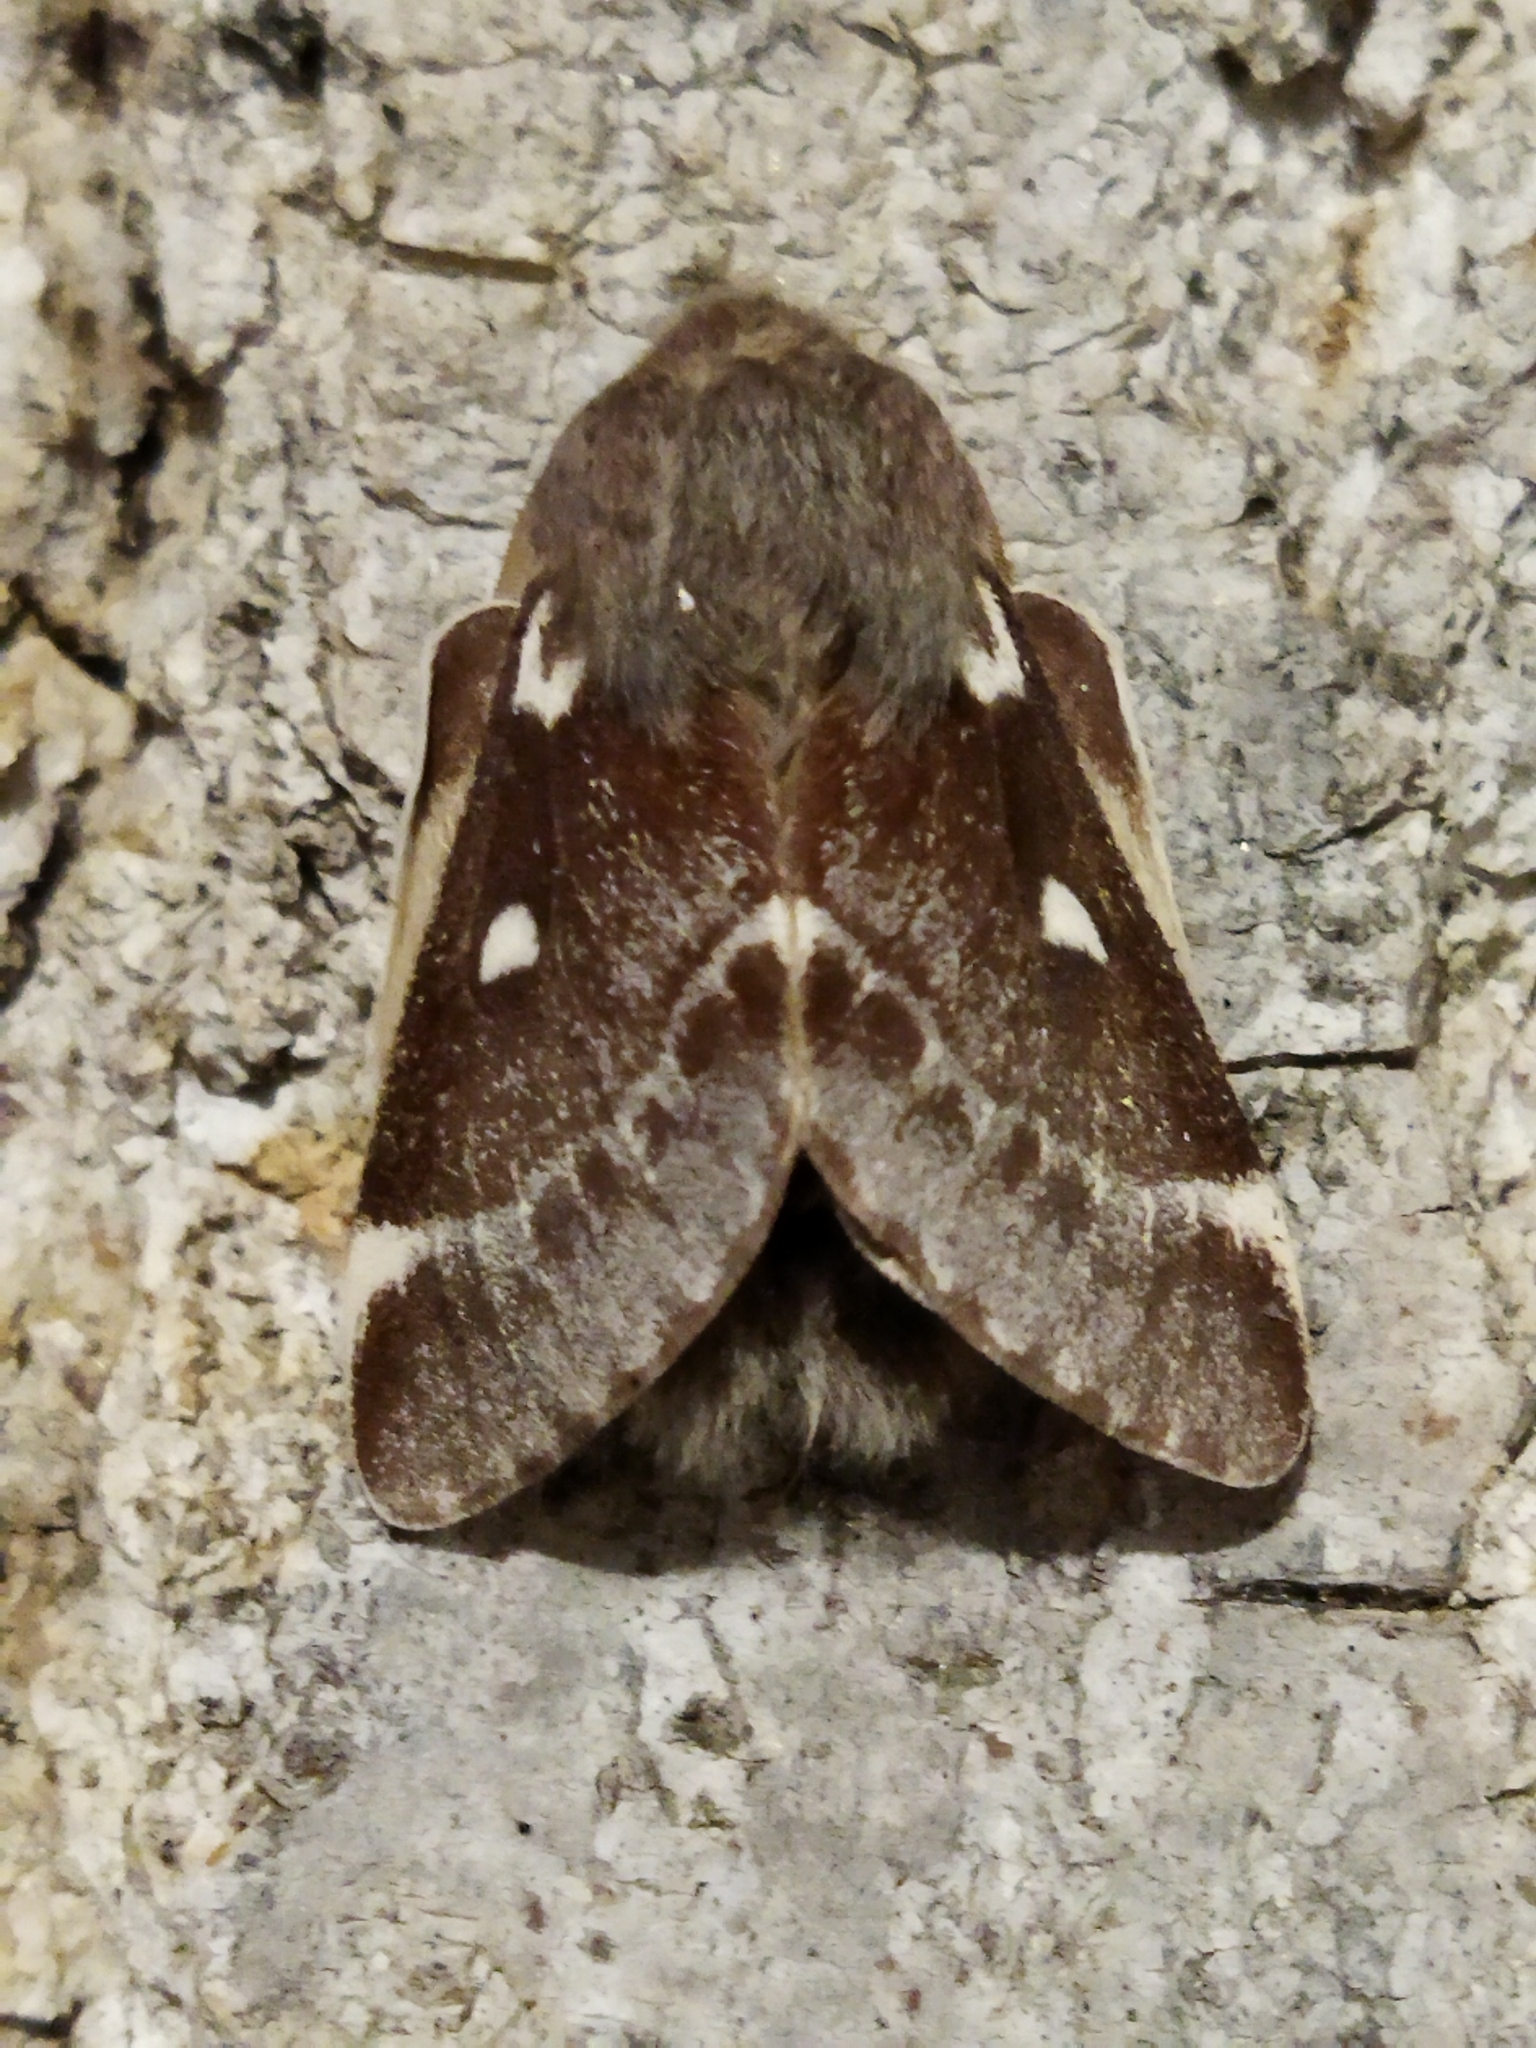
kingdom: Animalia
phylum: Arthropoda
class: Insecta
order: Lepidoptera
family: Lasiocampidae
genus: Eriogaster
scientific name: Eriogaster lanestris
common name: Small eggar
